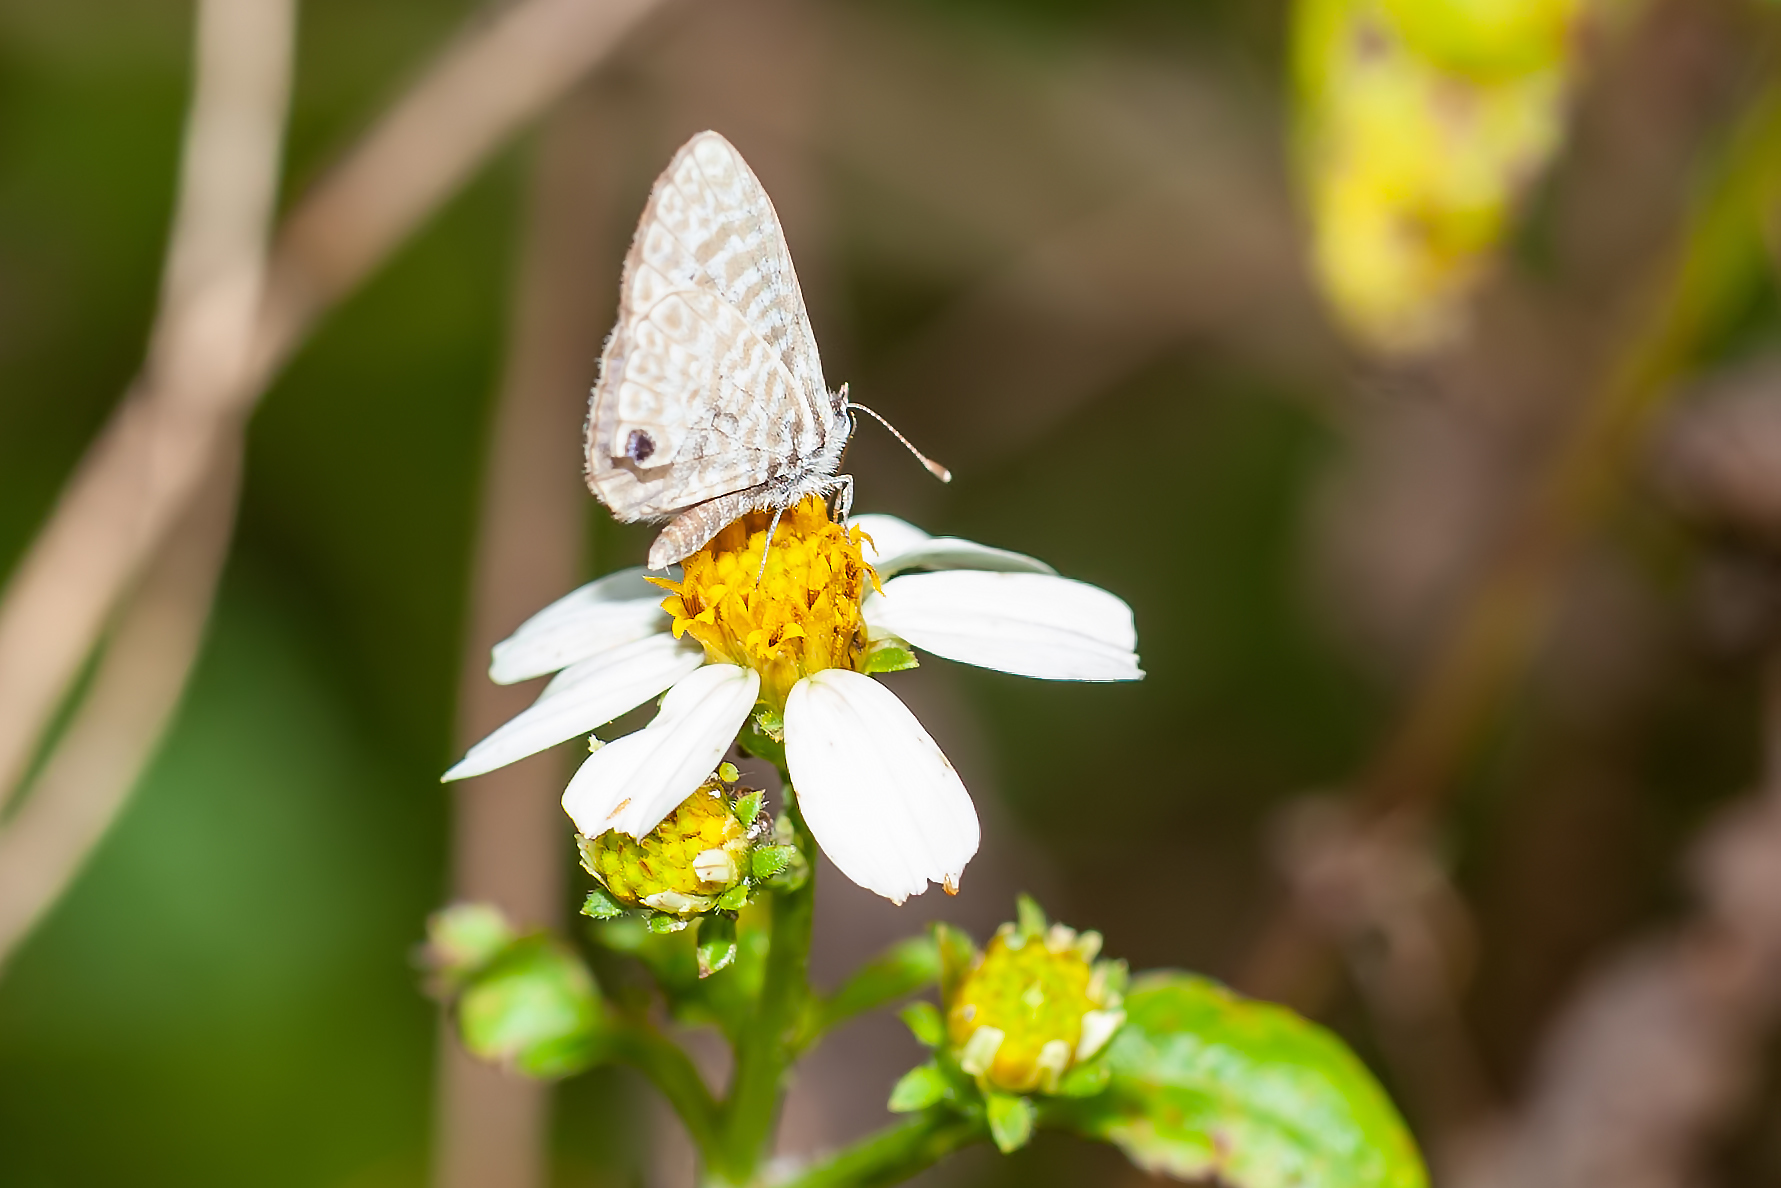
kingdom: Animalia
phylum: Arthropoda
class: Insecta
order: Lepidoptera
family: Lycaenidae
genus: Leptotes
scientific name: Leptotes cassius
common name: Cassius blue
